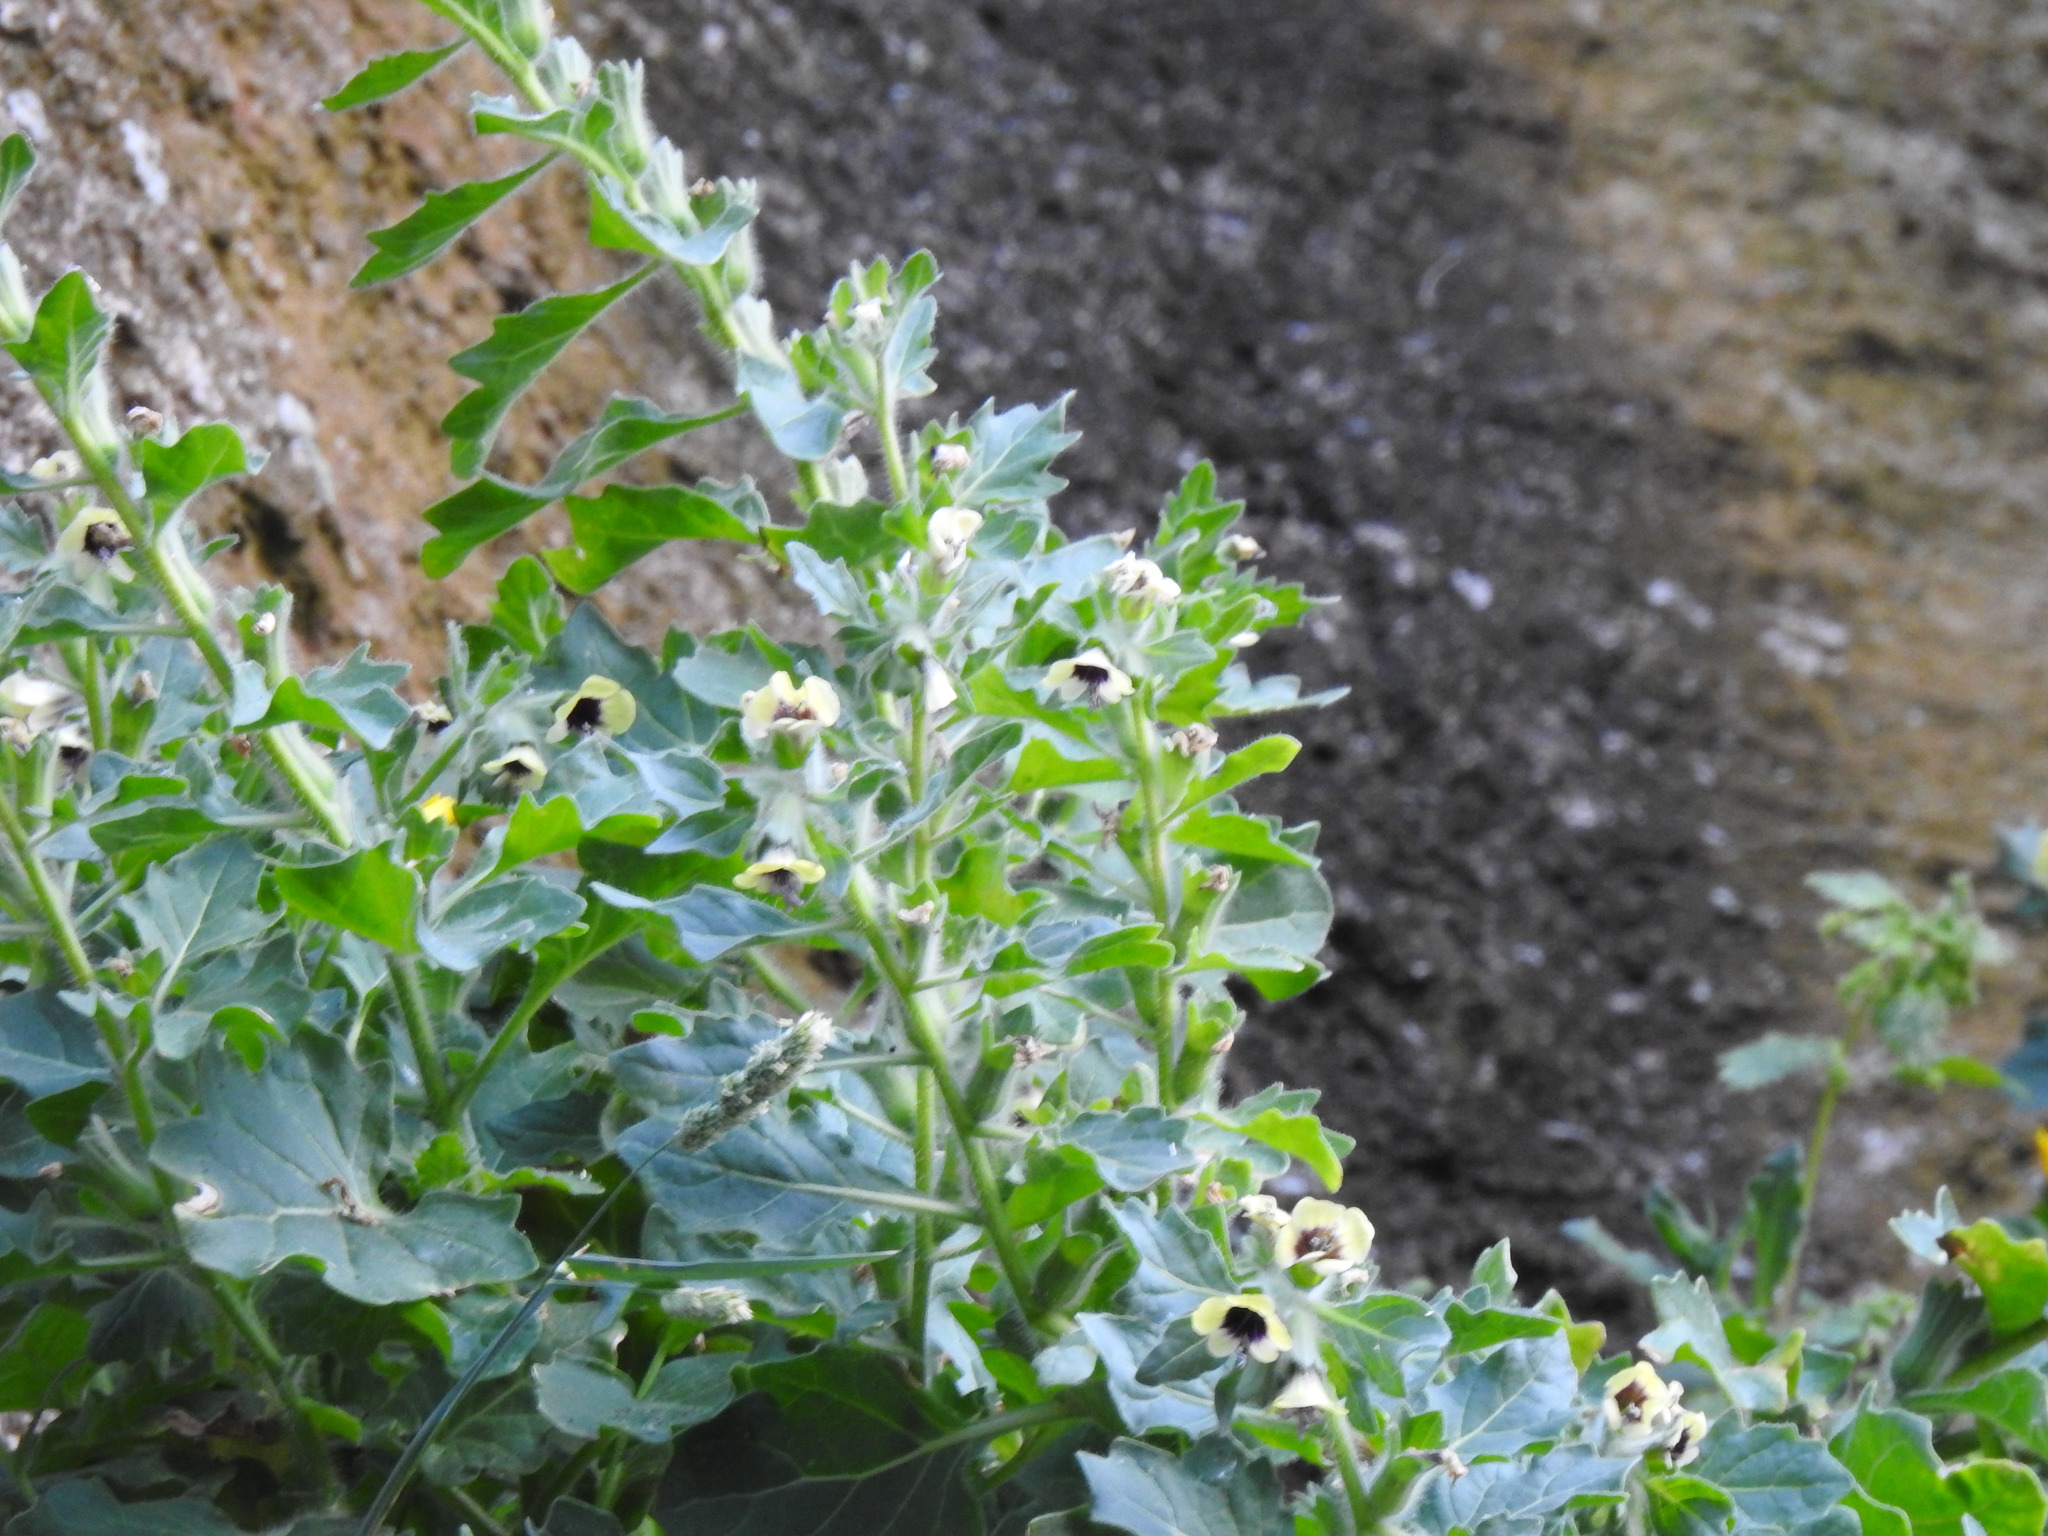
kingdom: Plantae
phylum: Tracheophyta
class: Magnoliopsida
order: Solanales
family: Solanaceae
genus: Hyoscyamus
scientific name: Hyoscyamus albus
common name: White henbane
